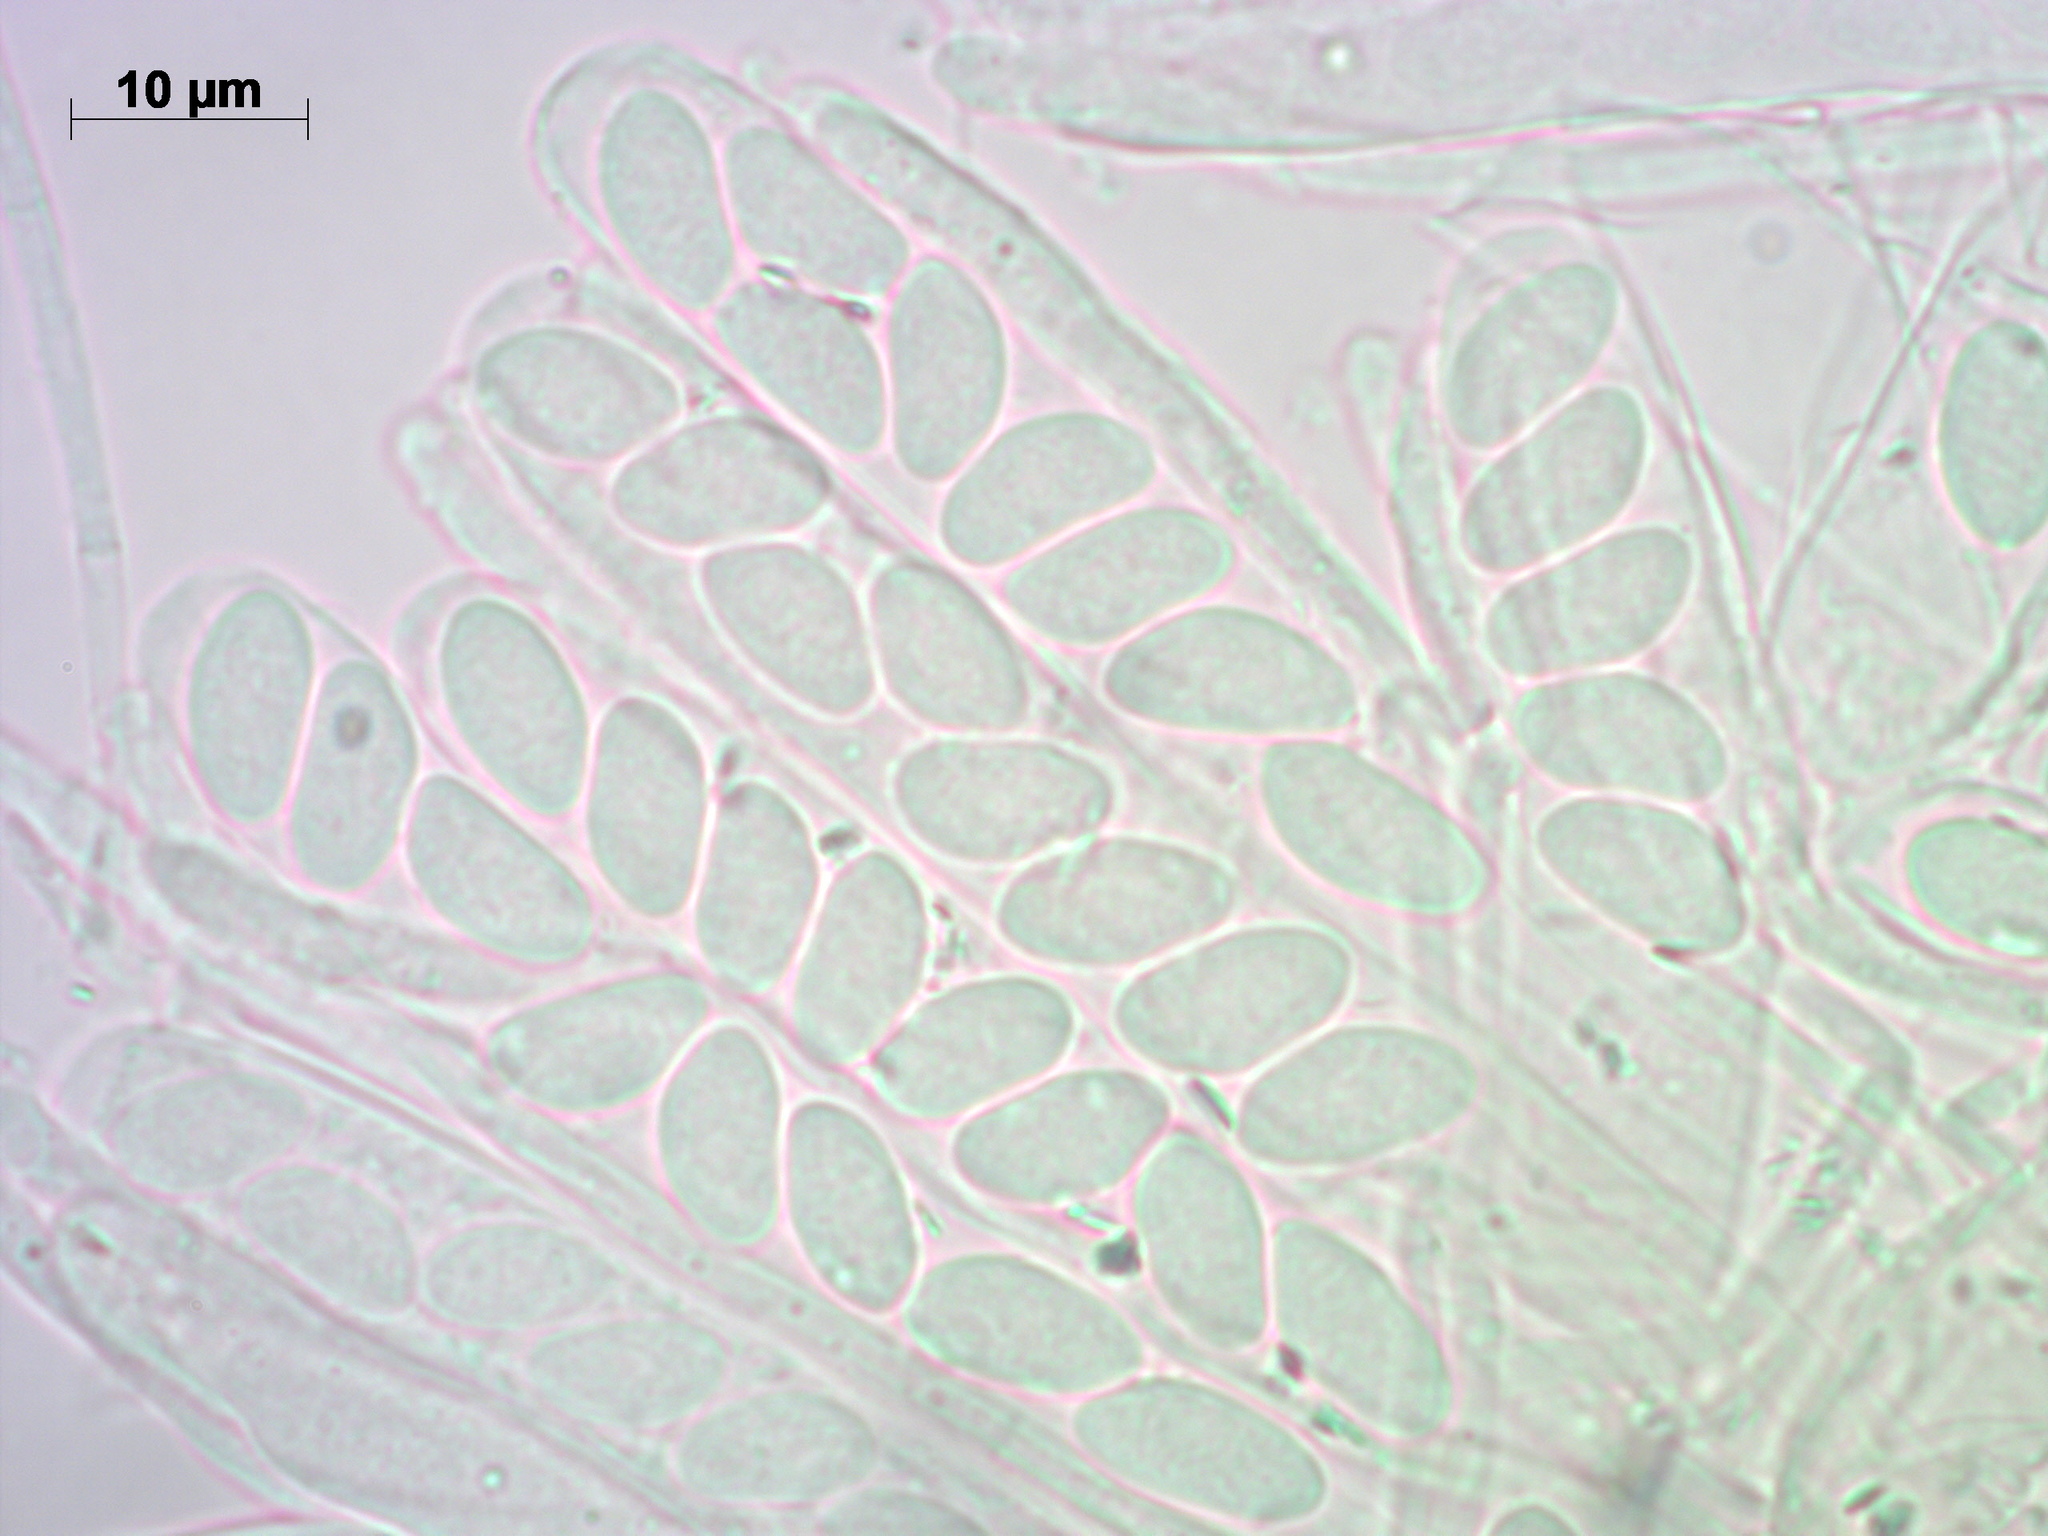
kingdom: Fungi
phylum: Ascomycota
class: Leotiomycetes
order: Helotiales
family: Sclerotiniaceae
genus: Ciboria
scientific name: Ciboria caucus
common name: Alder goblet
